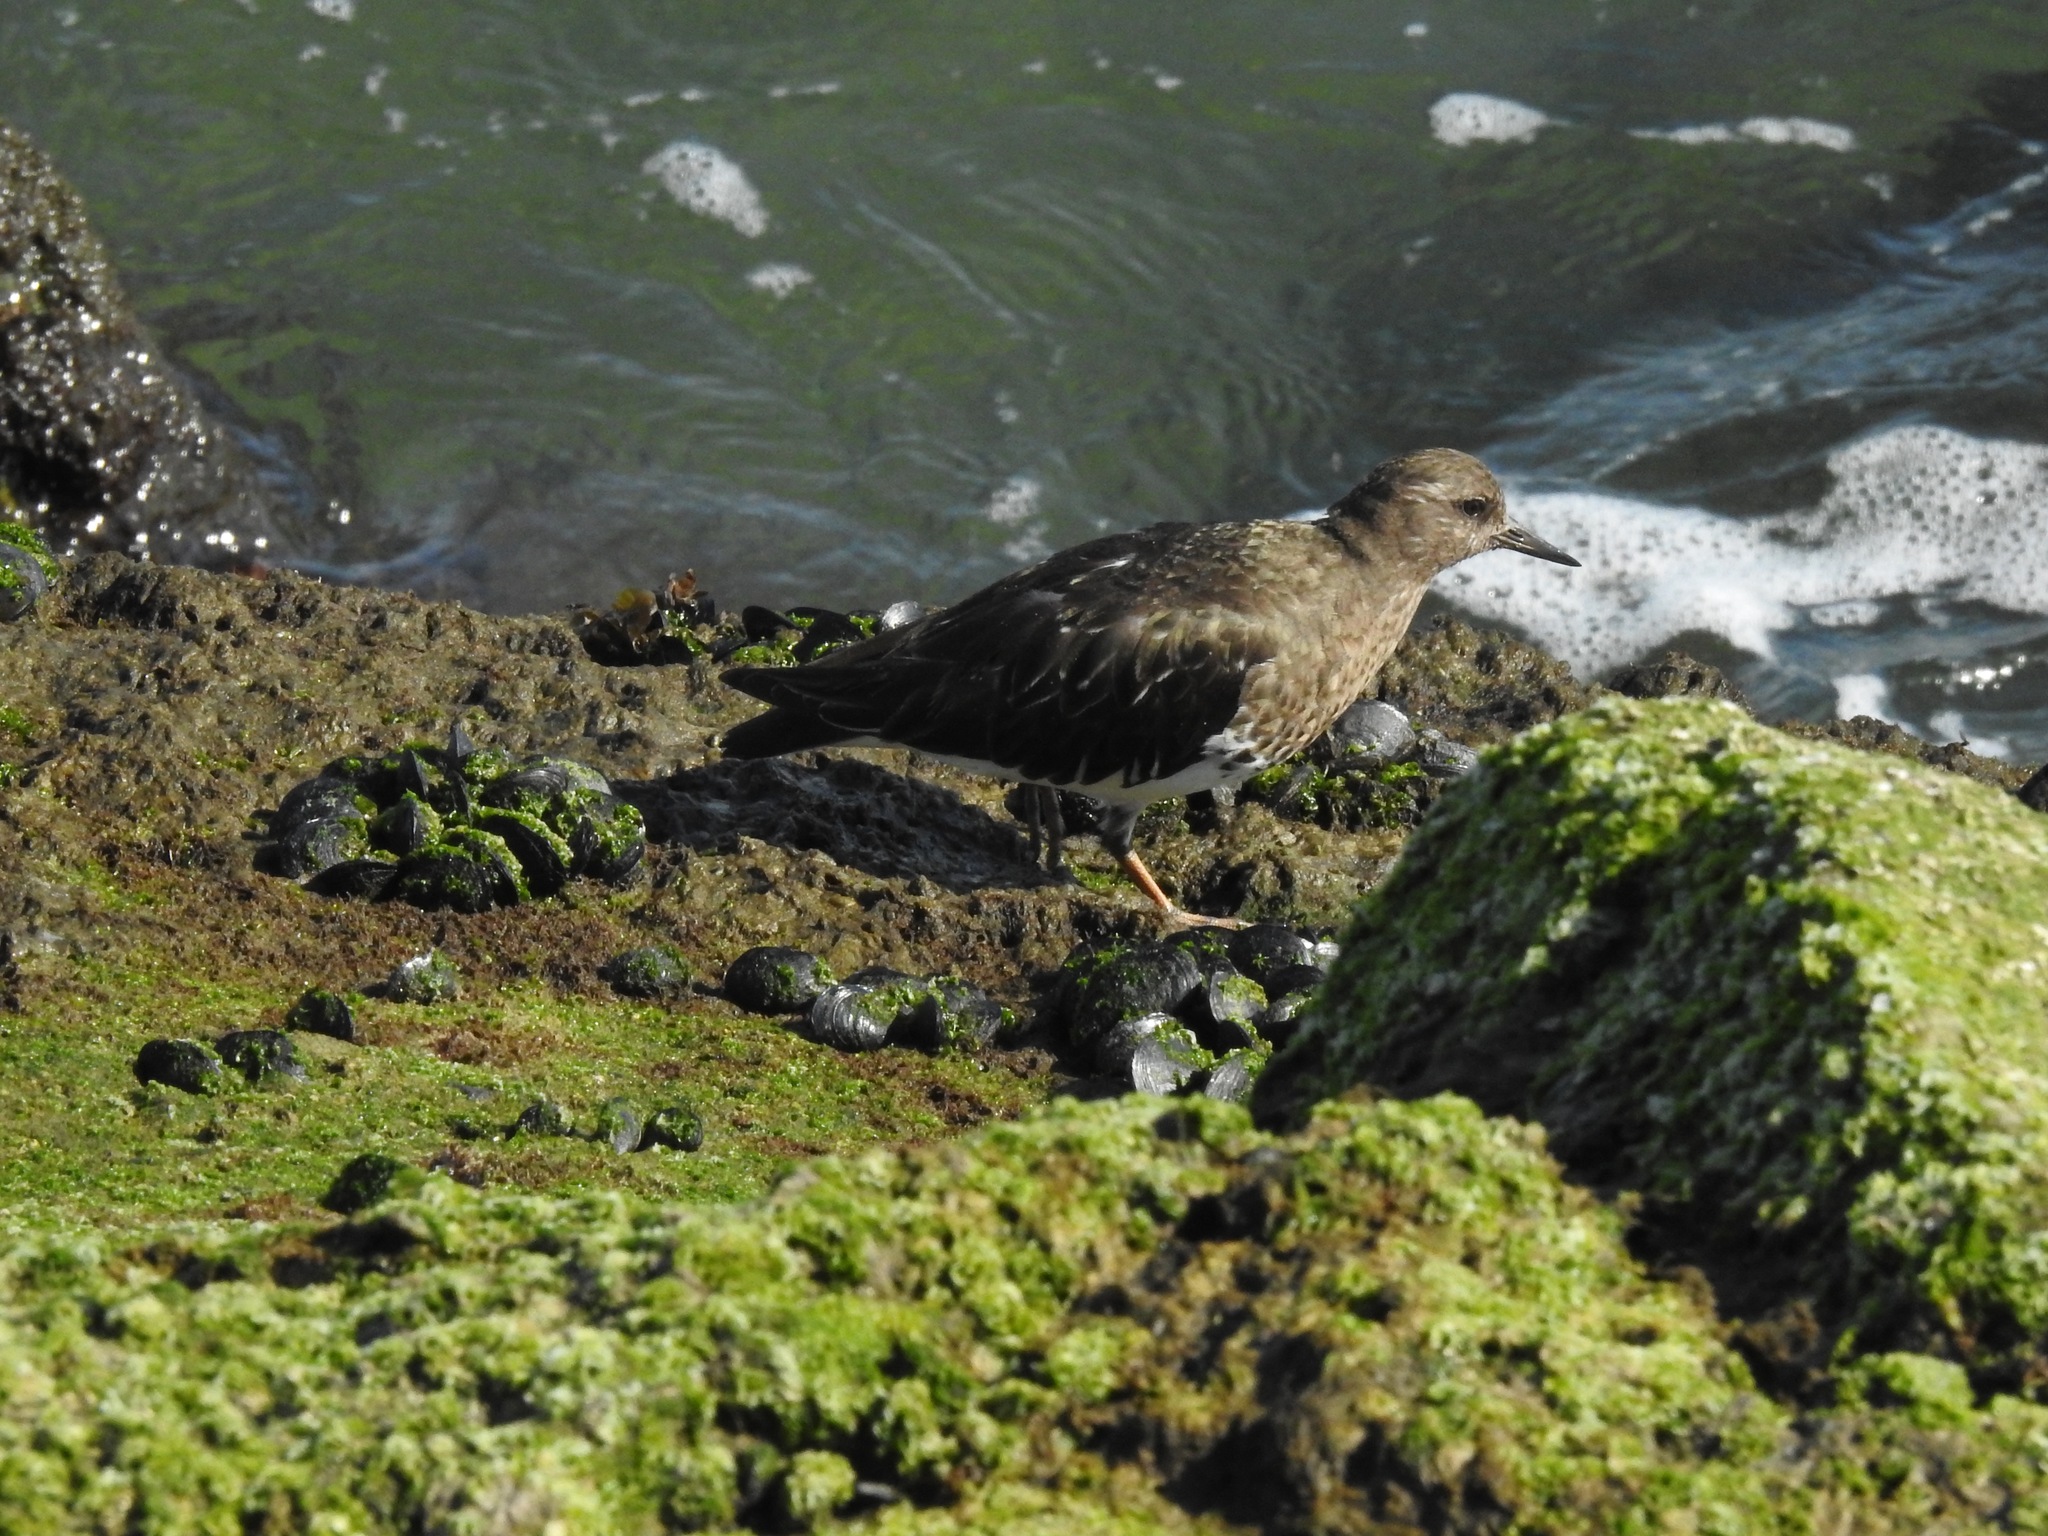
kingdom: Animalia
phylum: Chordata
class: Aves
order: Charadriiformes
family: Scolopacidae
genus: Arenaria
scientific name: Arenaria melanocephala
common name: Black turnstone
